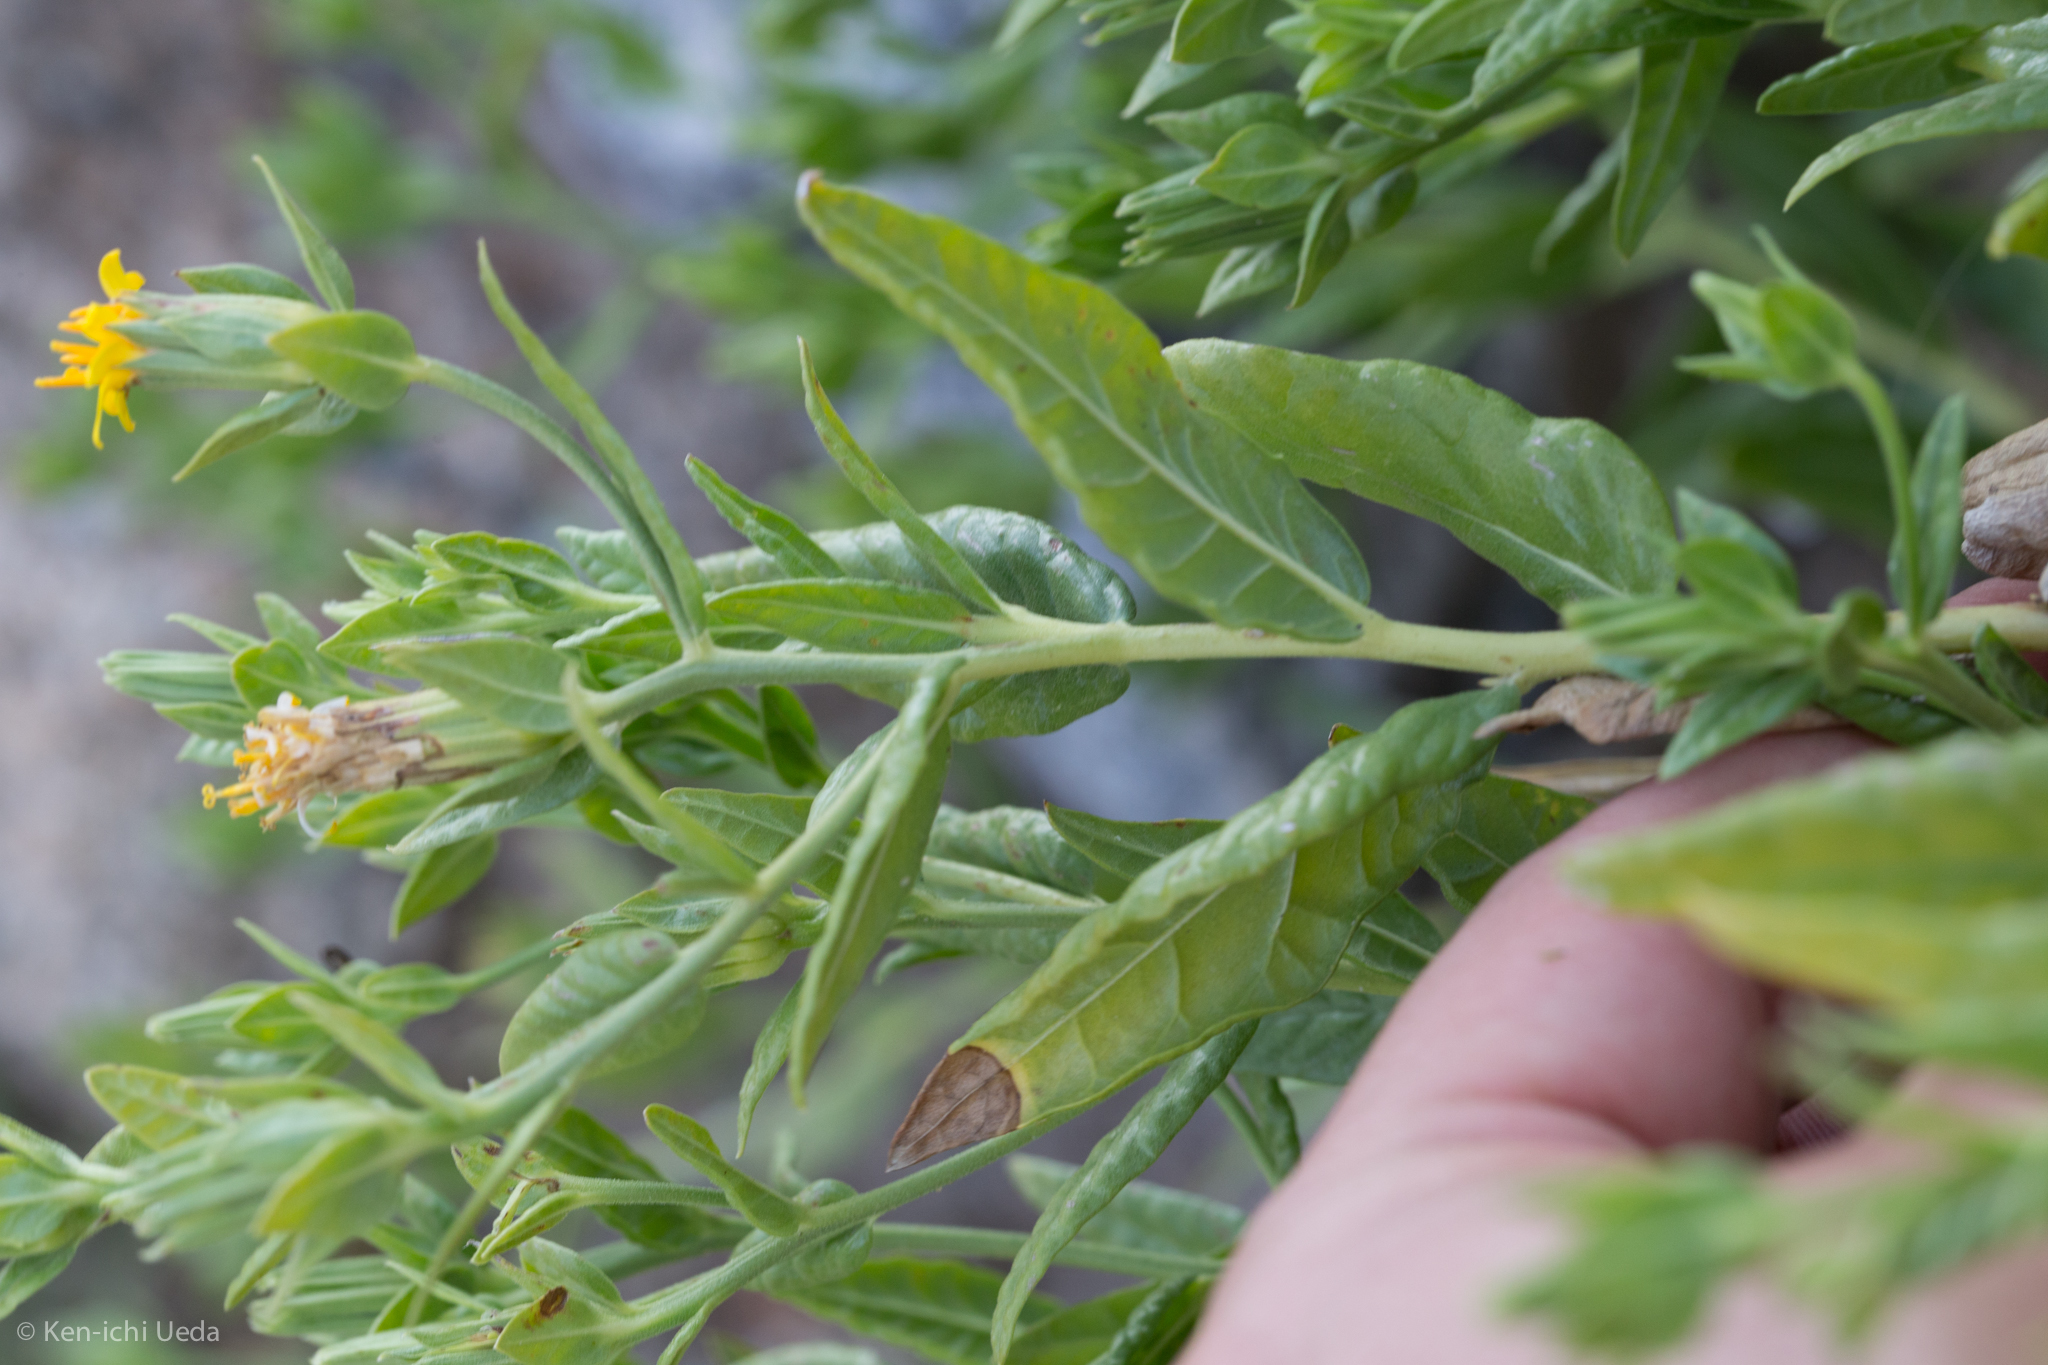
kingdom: Plantae
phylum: Tracheophyta
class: Magnoliopsida
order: Asterales
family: Asteraceae
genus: Trixis
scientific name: Trixis californica
